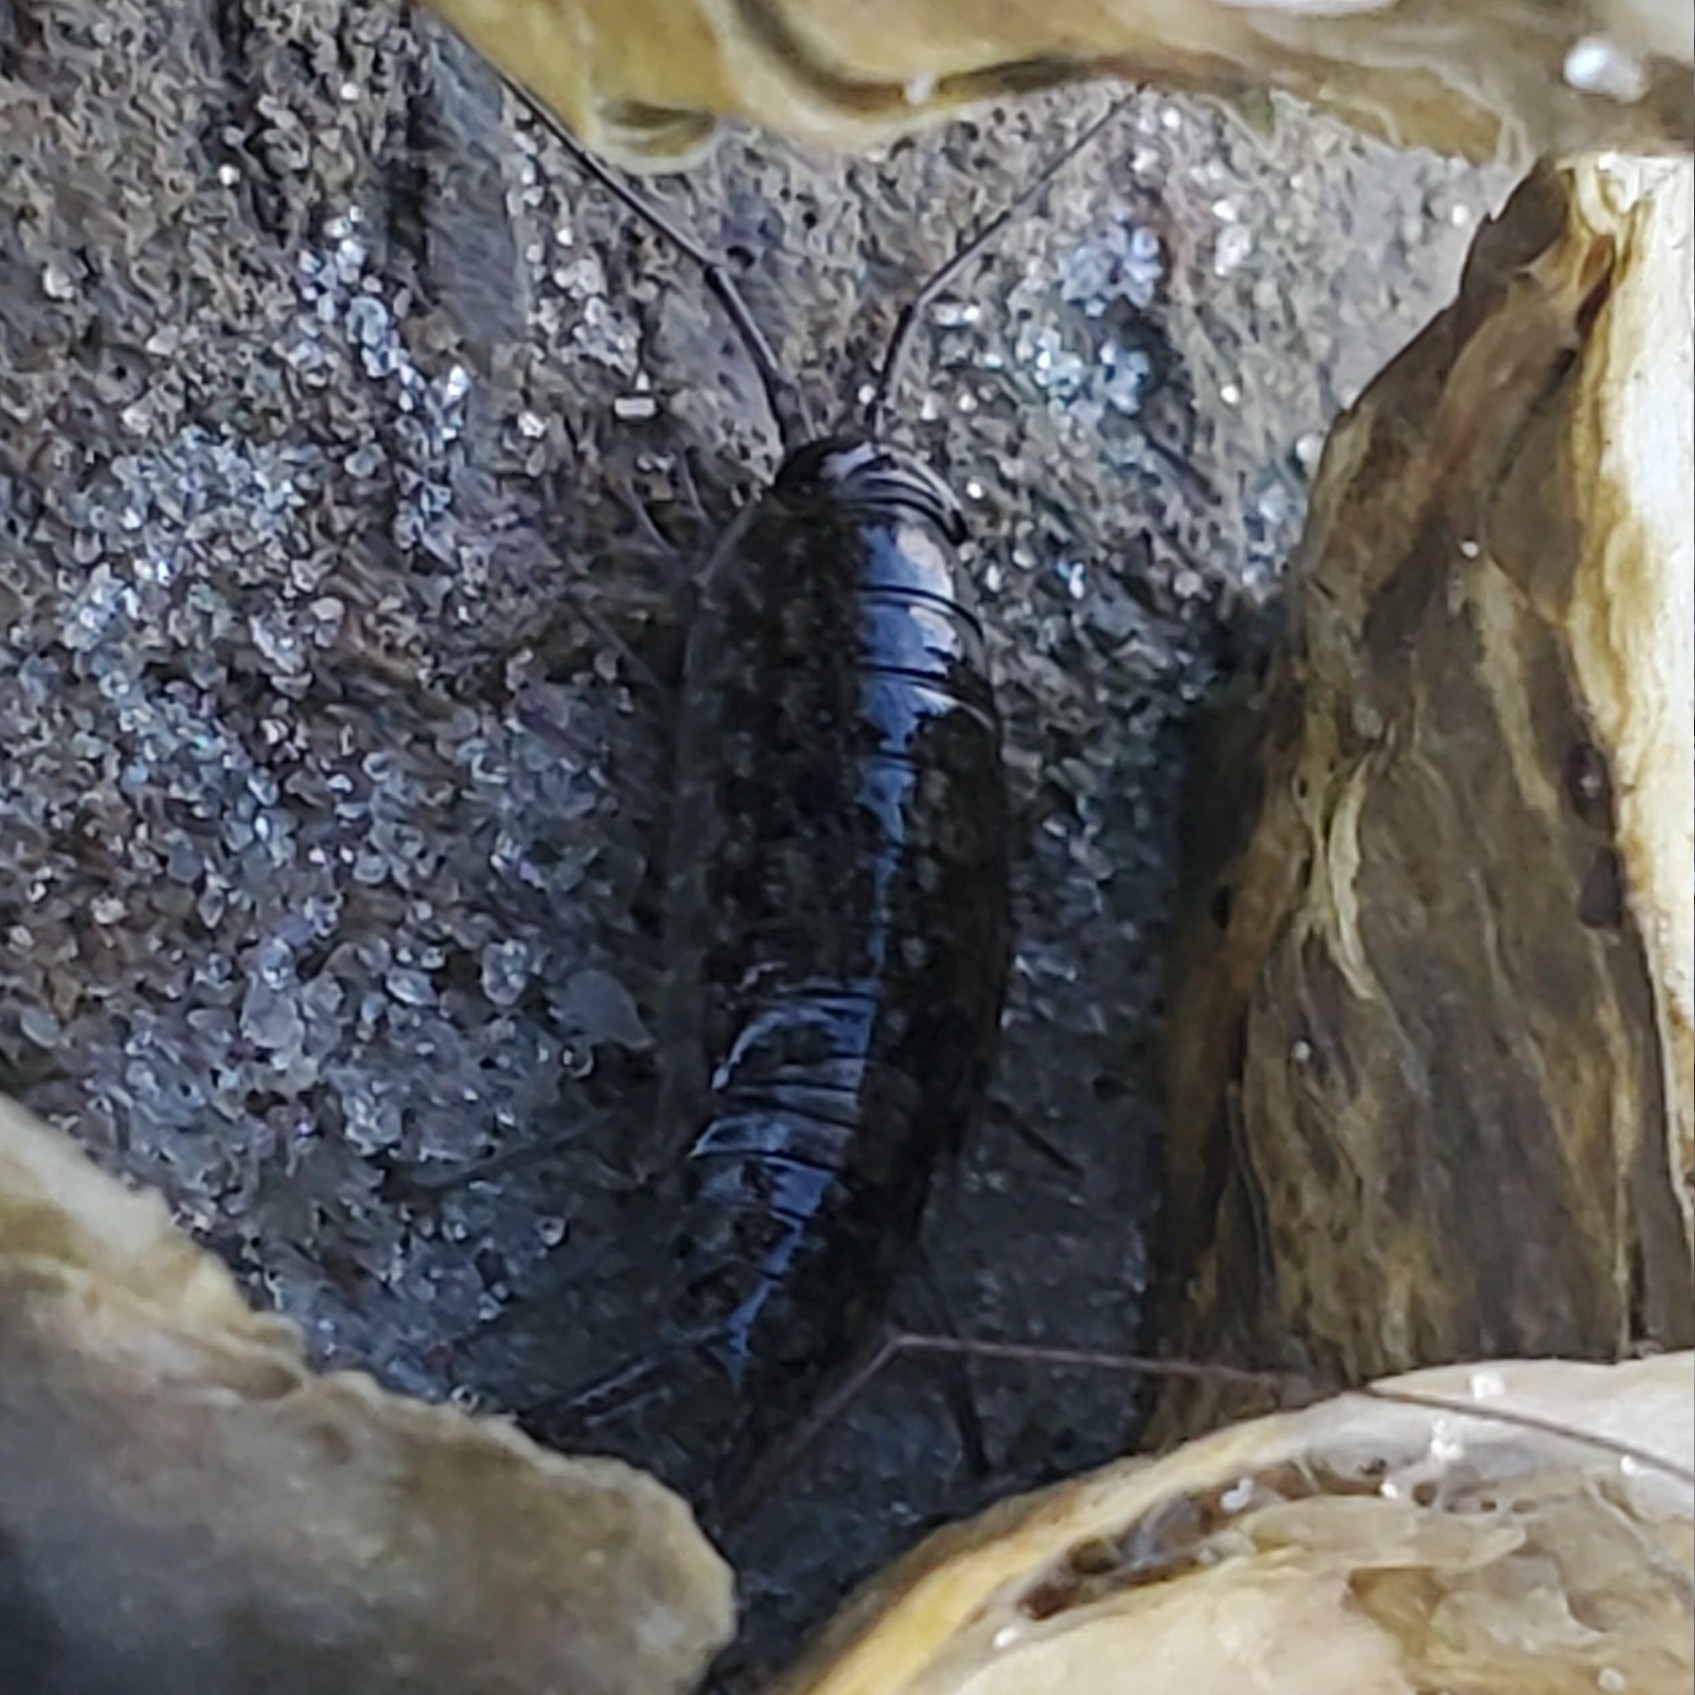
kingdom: Animalia
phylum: Arthropoda
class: Malacostraca
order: Isopoda
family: Ligiidae
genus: Ligia
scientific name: Ligia exotica
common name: Wharf roach
